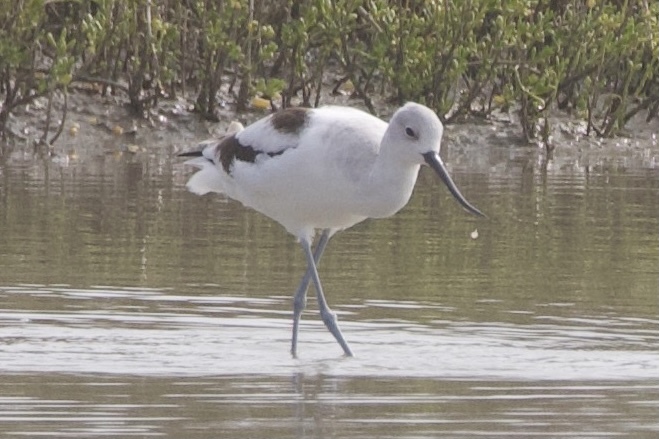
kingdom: Animalia
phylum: Chordata
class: Aves
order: Charadriiformes
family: Recurvirostridae
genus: Recurvirostra
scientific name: Recurvirostra americana
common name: American avocet
